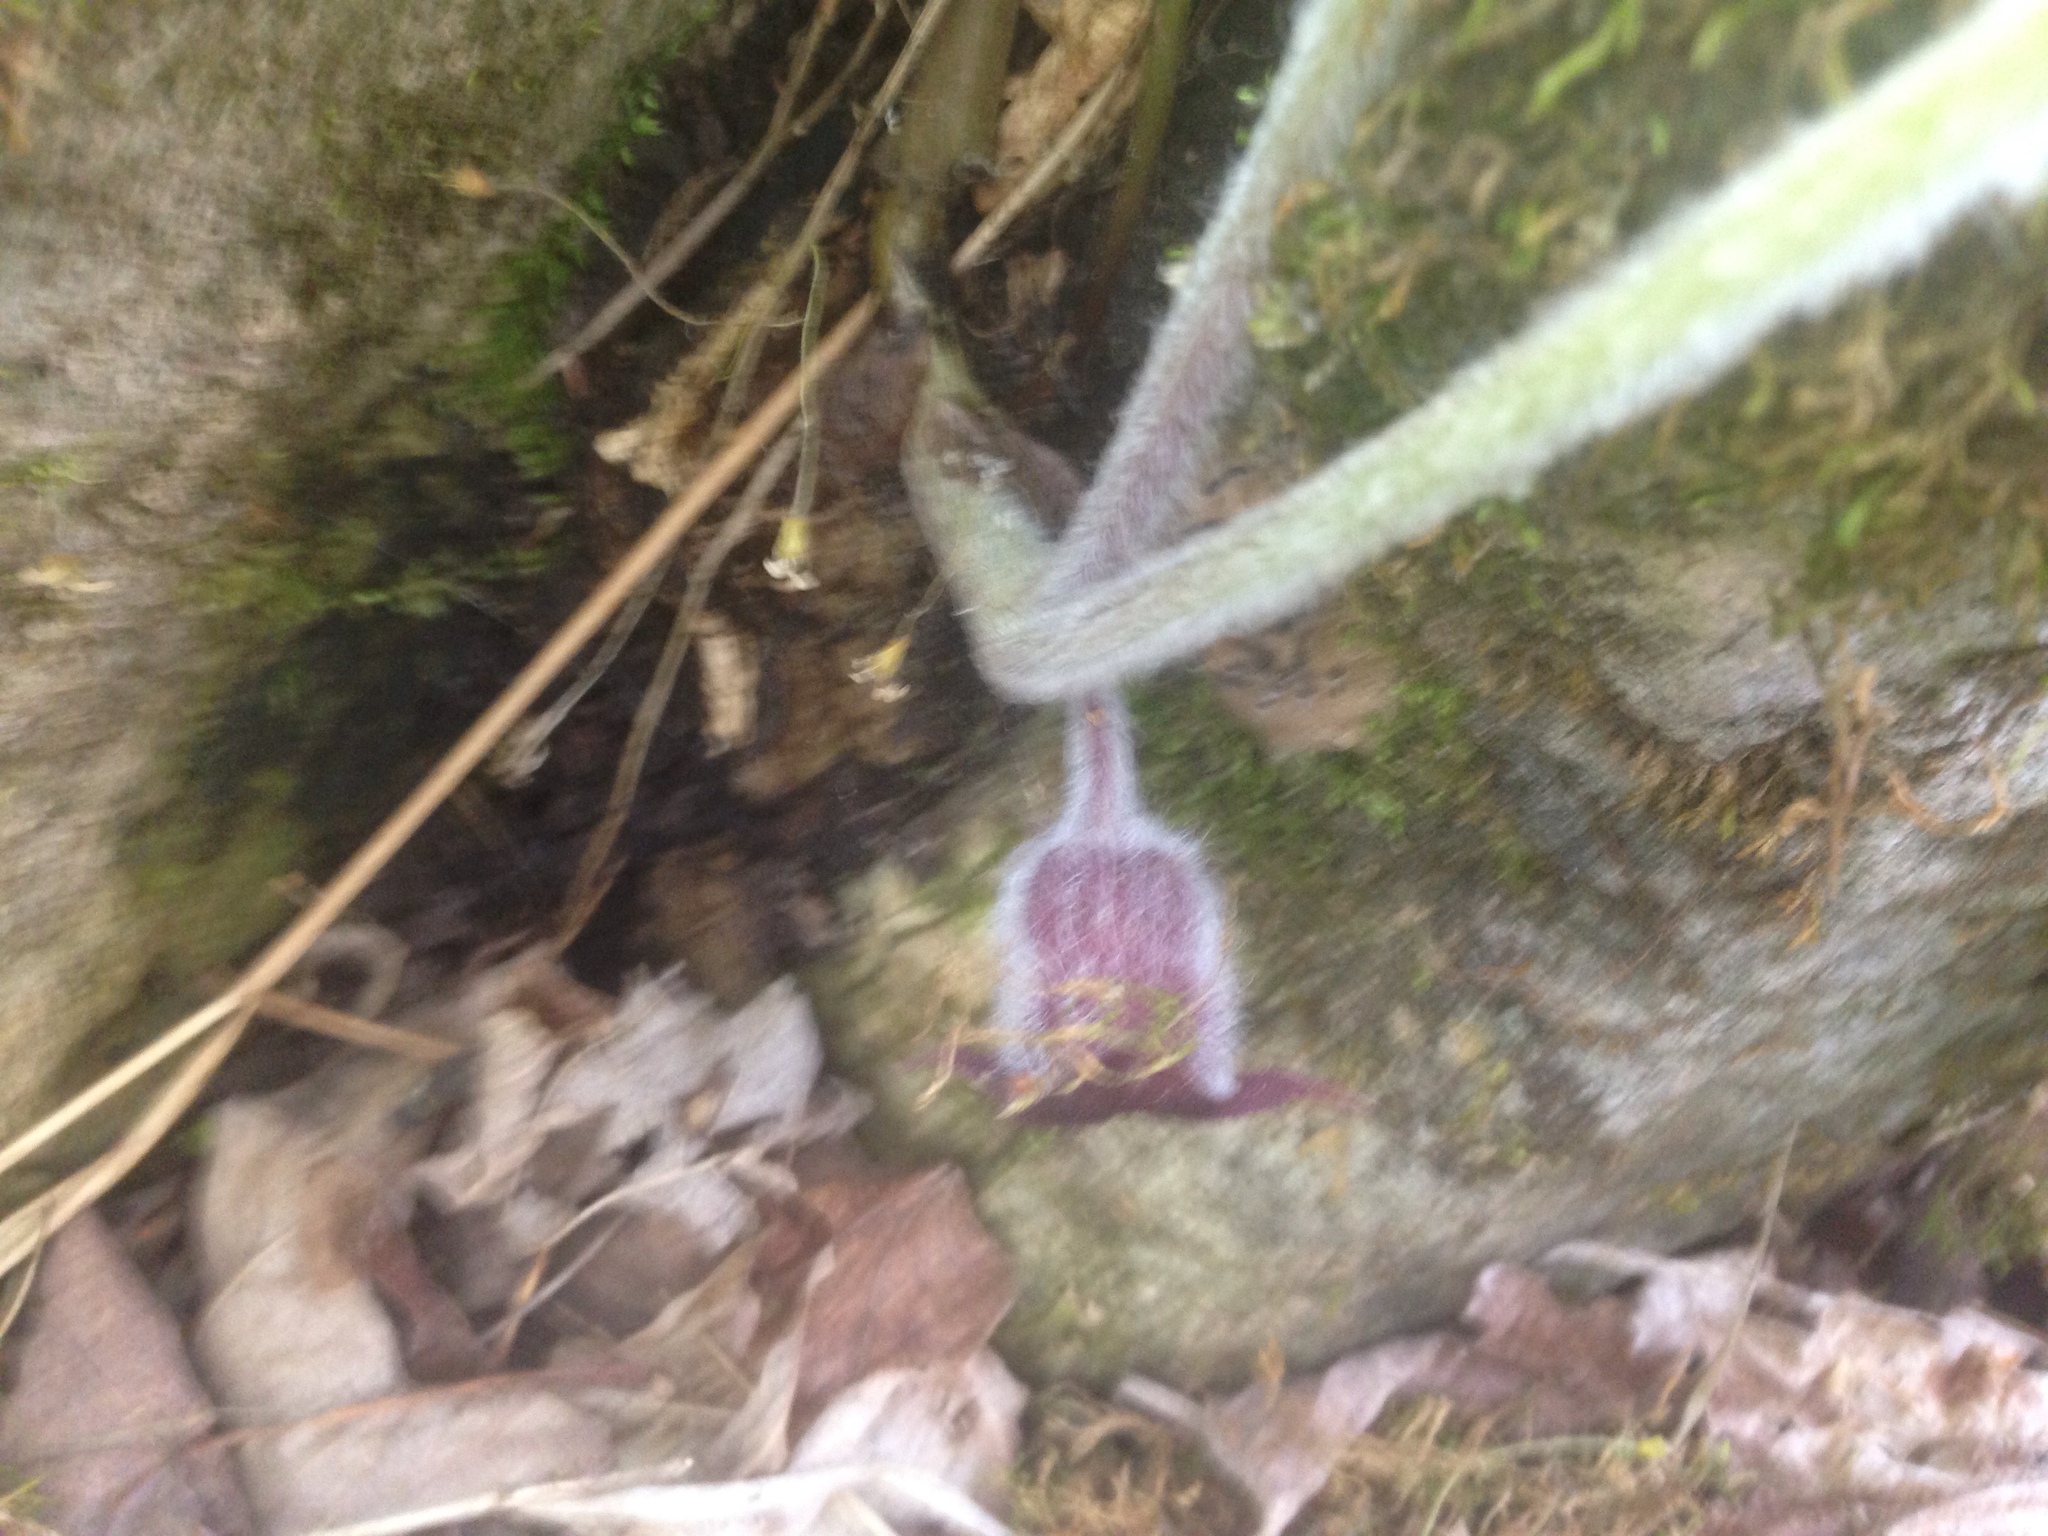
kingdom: Plantae
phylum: Tracheophyta
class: Magnoliopsida
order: Piperales
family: Aristolochiaceae
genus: Asarum
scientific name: Asarum canadense
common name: Wild ginger
